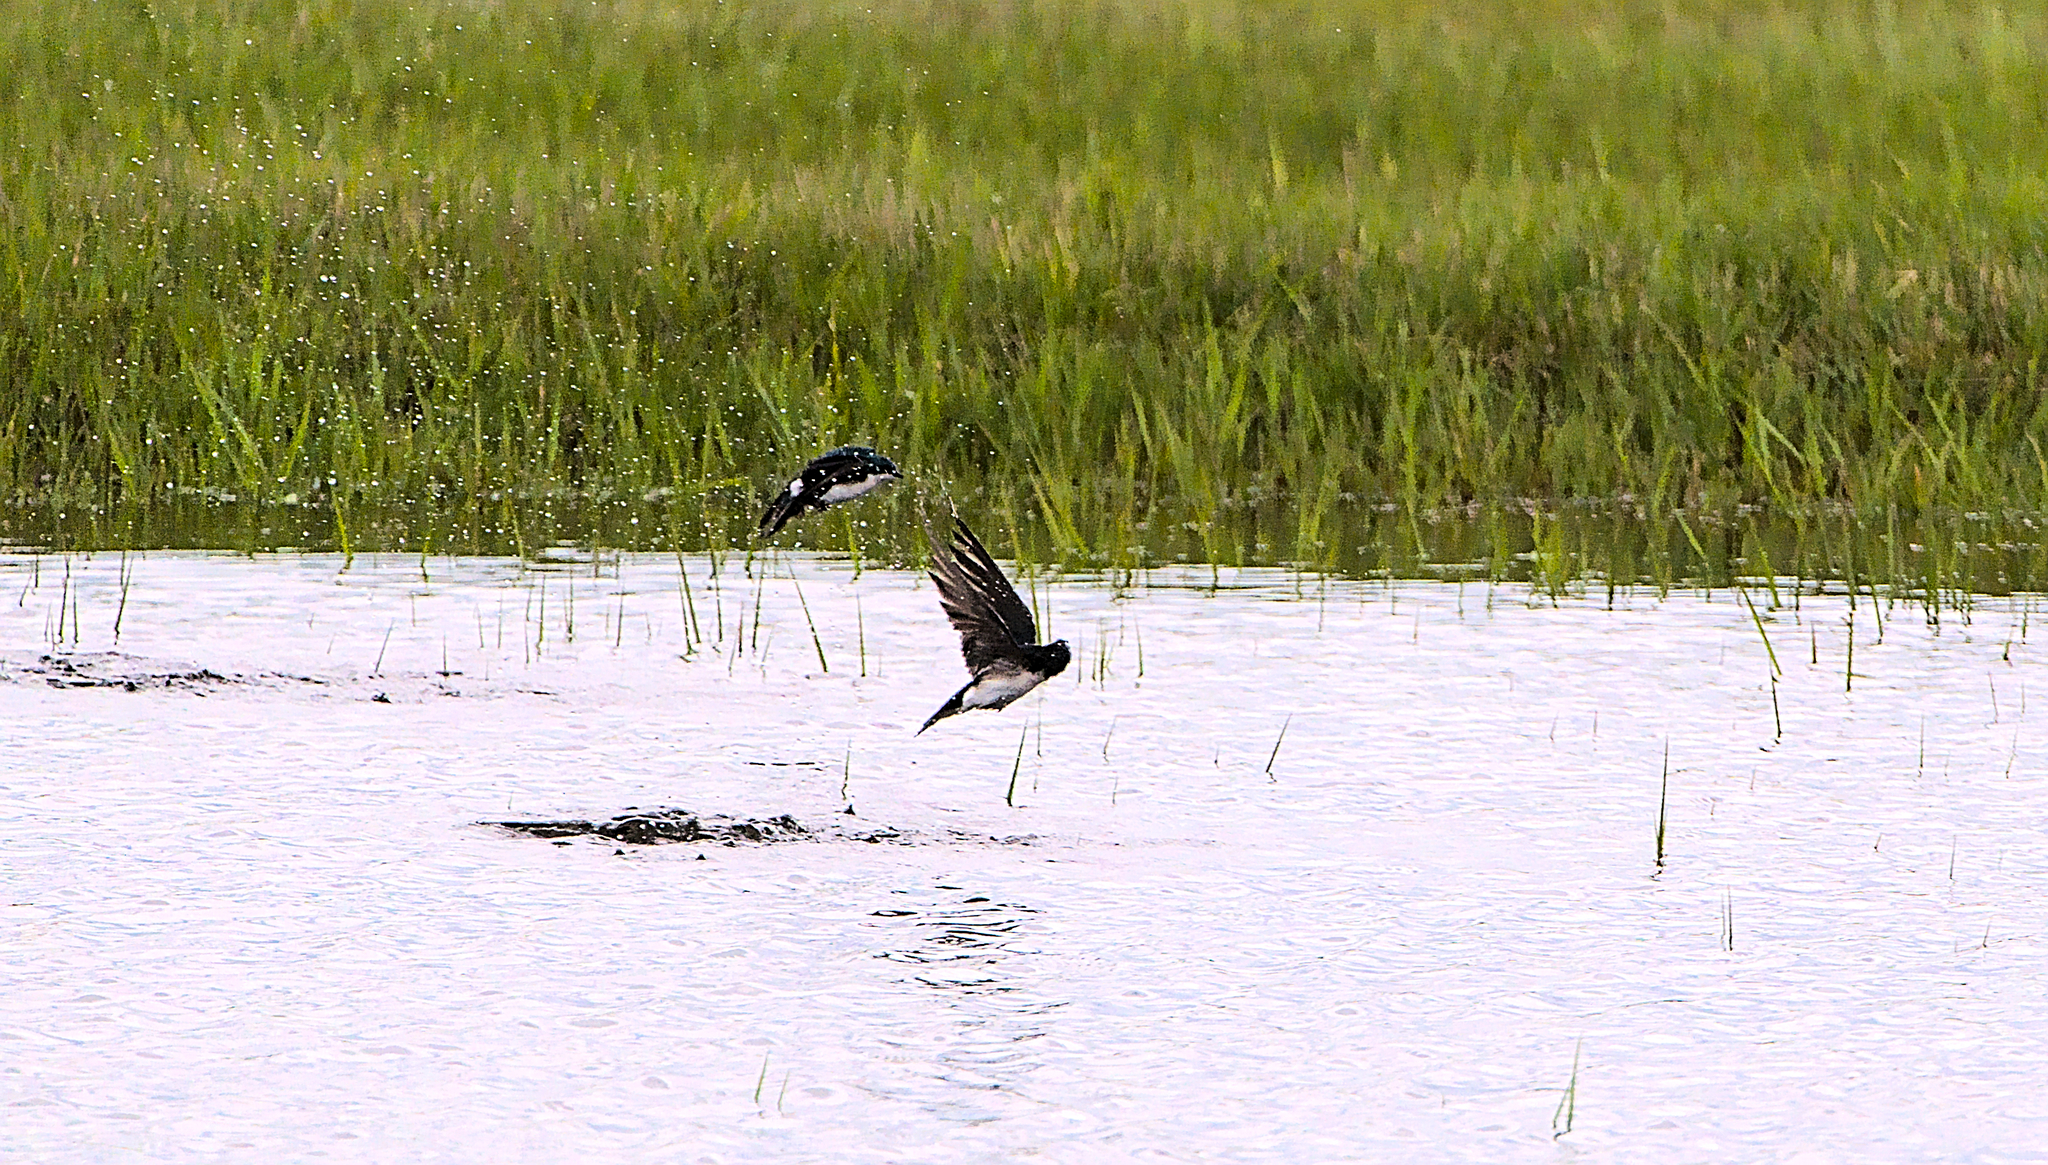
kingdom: Animalia
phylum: Chordata
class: Aves
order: Passeriformes
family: Hirundinidae
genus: Tachycineta
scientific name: Tachycineta bicolor
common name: Tree swallow
